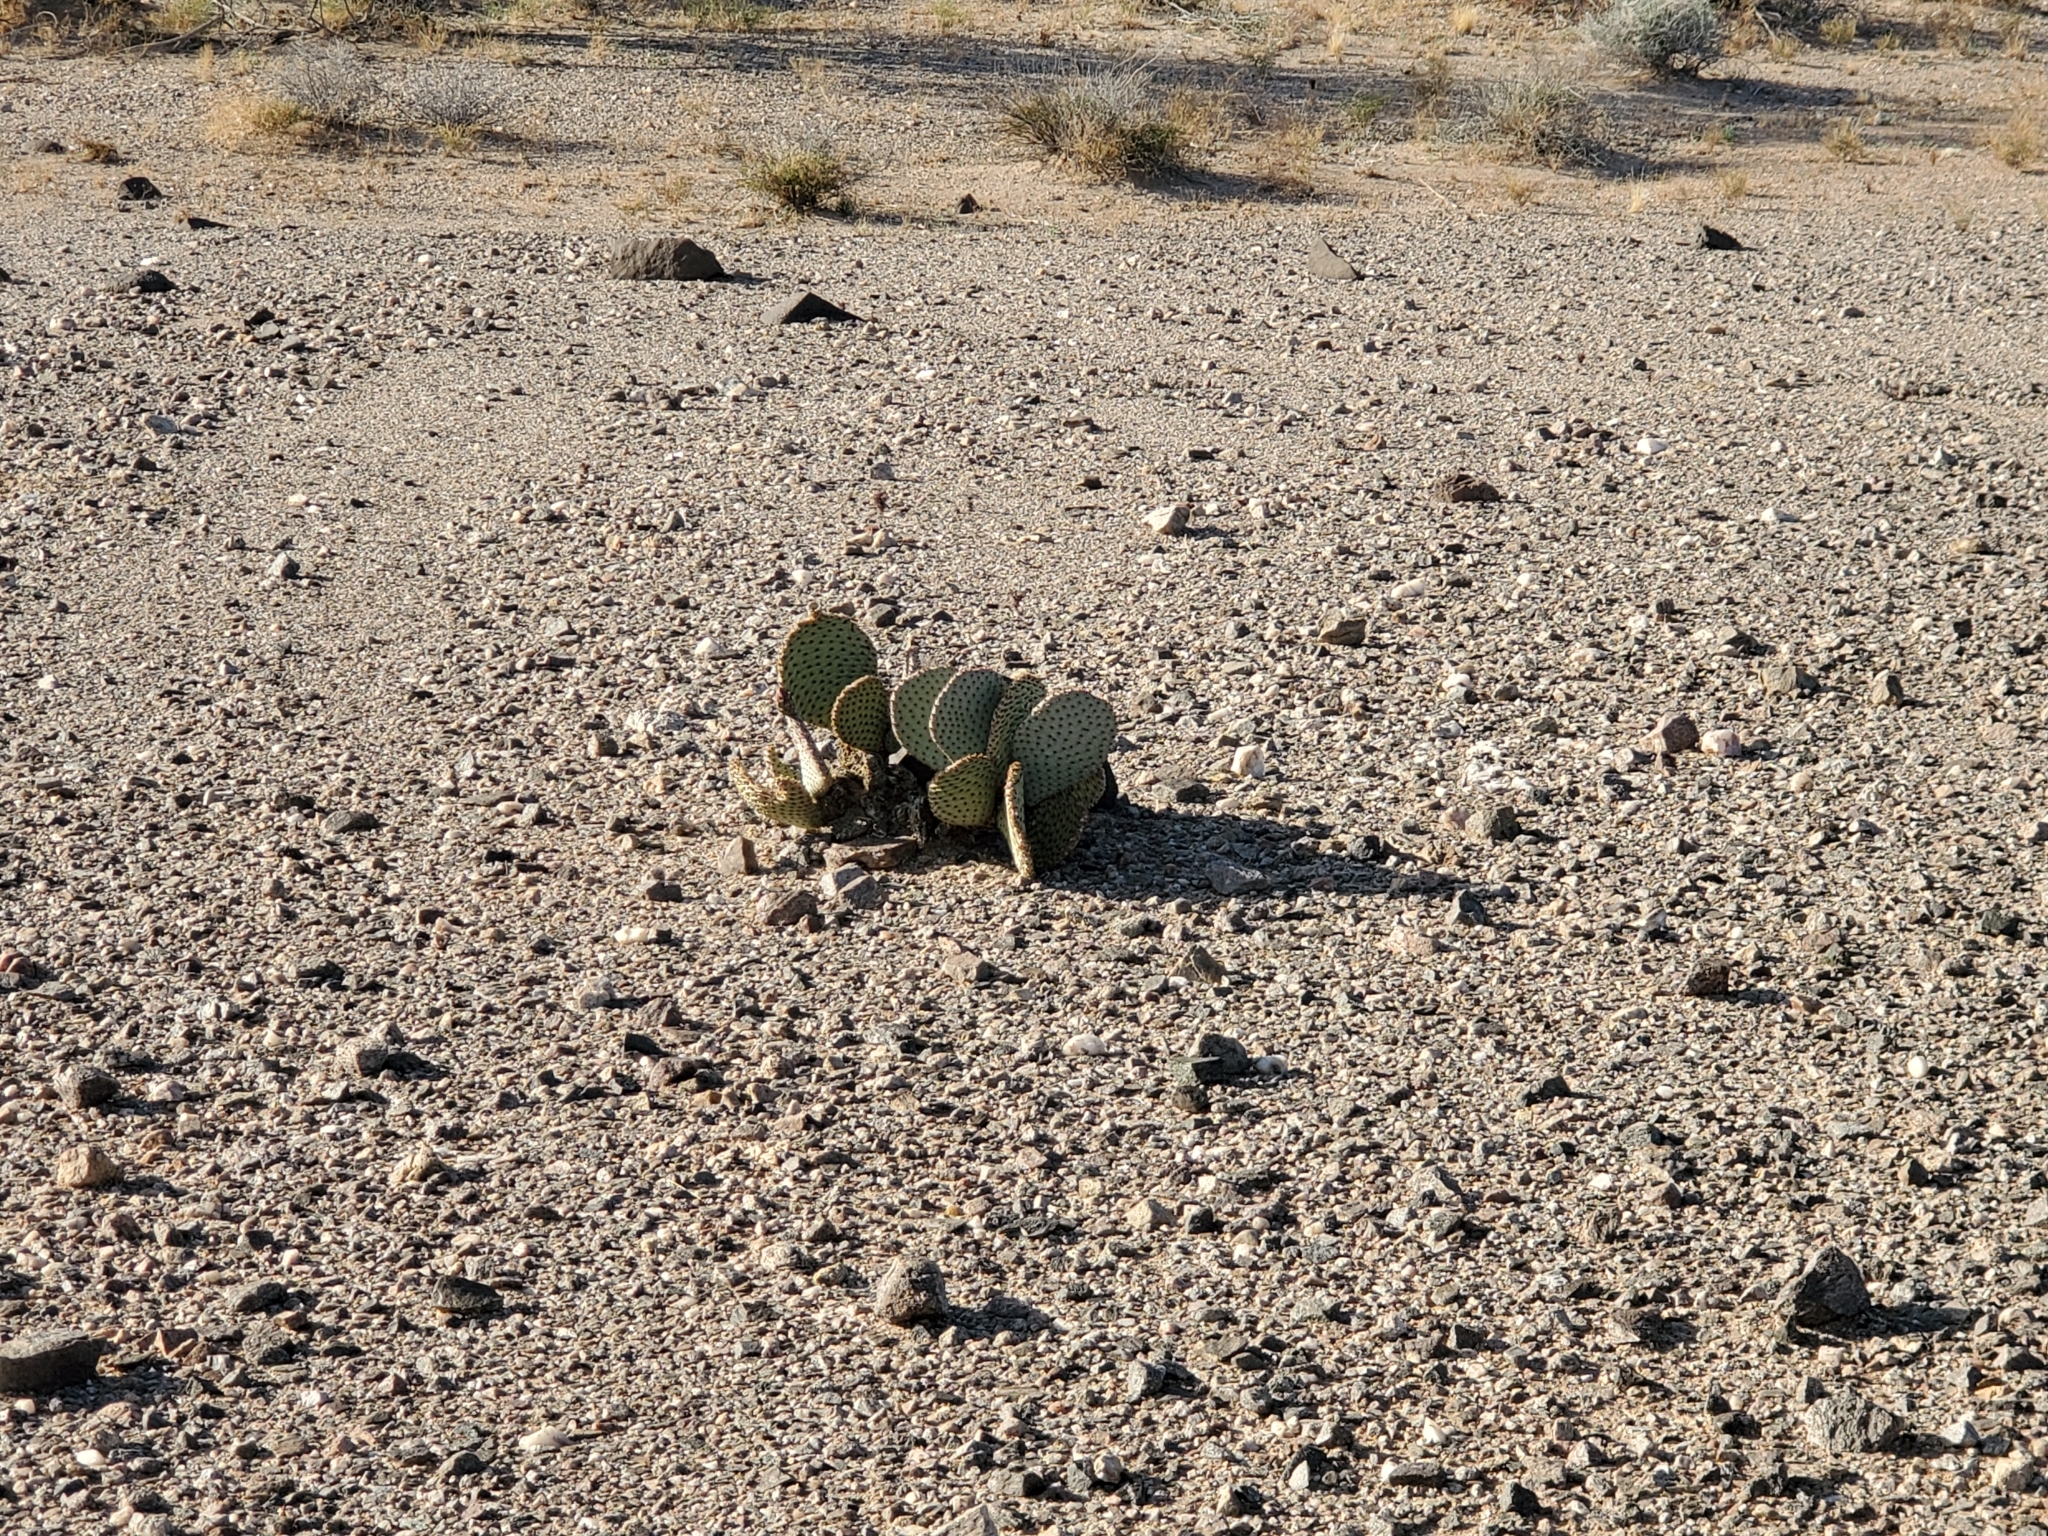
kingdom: Plantae
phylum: Tracheophyta
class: Magnoliopsida
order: Caryophyllales
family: Cactaceae
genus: Opuntia
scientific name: Opuntia basilaris
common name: Beavertail prickly-pear
